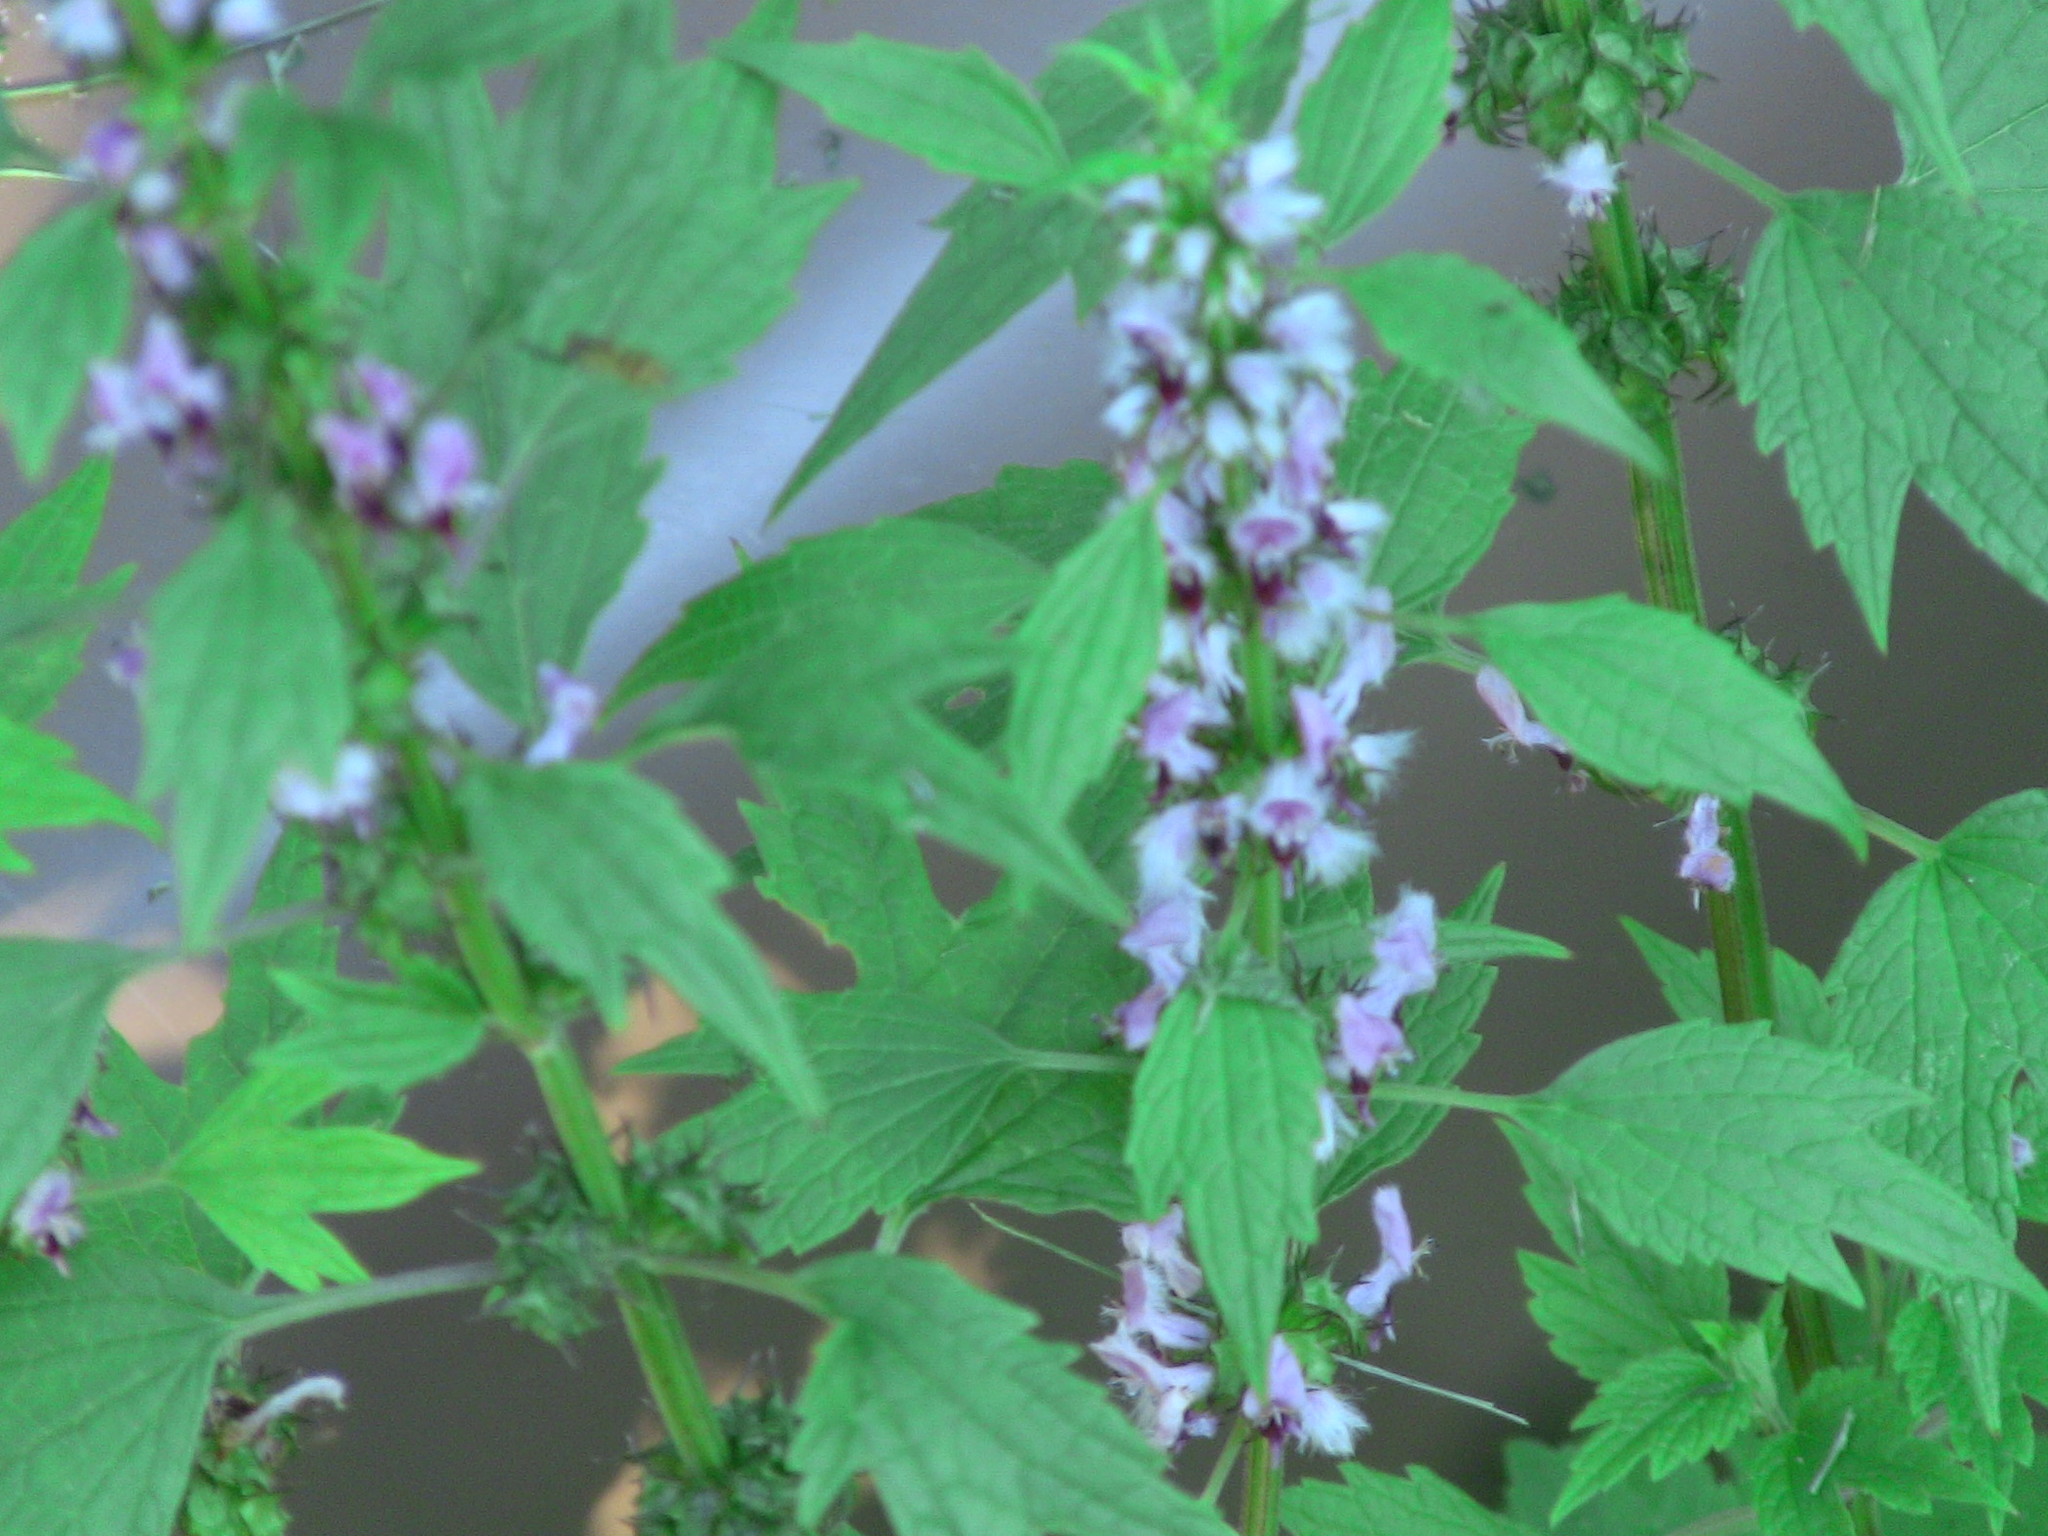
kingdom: Plantae
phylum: Tracheophyta
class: Magnoliopsida
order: Lamiales
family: Lamiaceae
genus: Leonurus
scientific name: Leonurus cardiaca
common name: Motherwort
